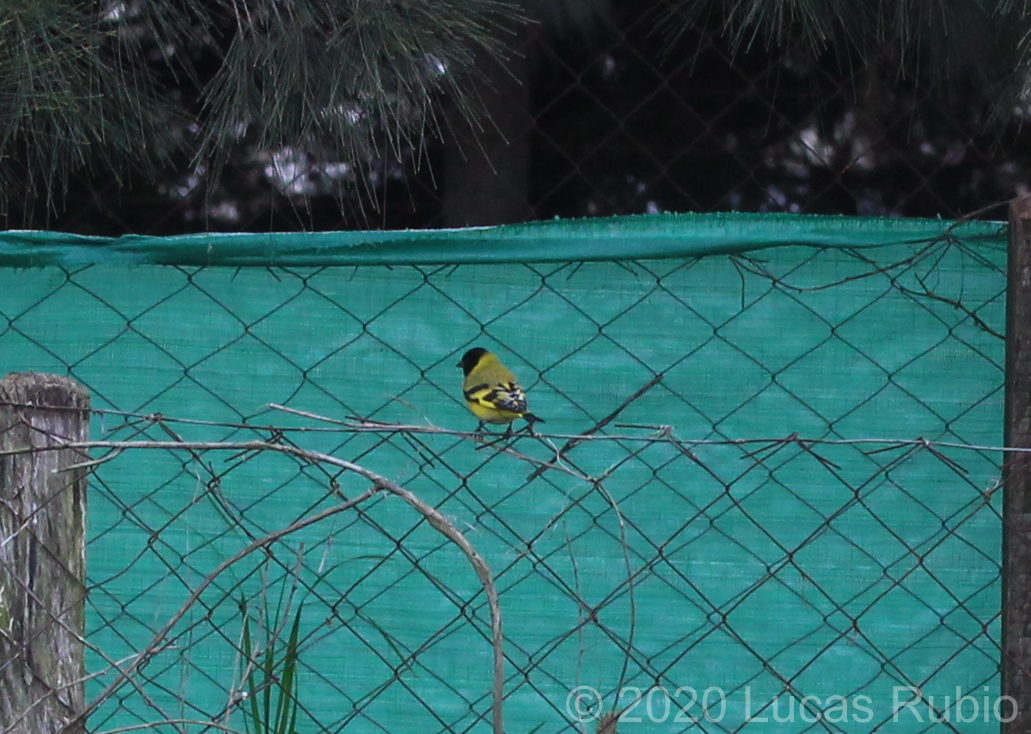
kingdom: Animalia
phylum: Chordata
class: Aves
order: Passeriformes
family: Fringillidae
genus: Spinus
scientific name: Spinus magellanicus
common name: Hooded siskin
